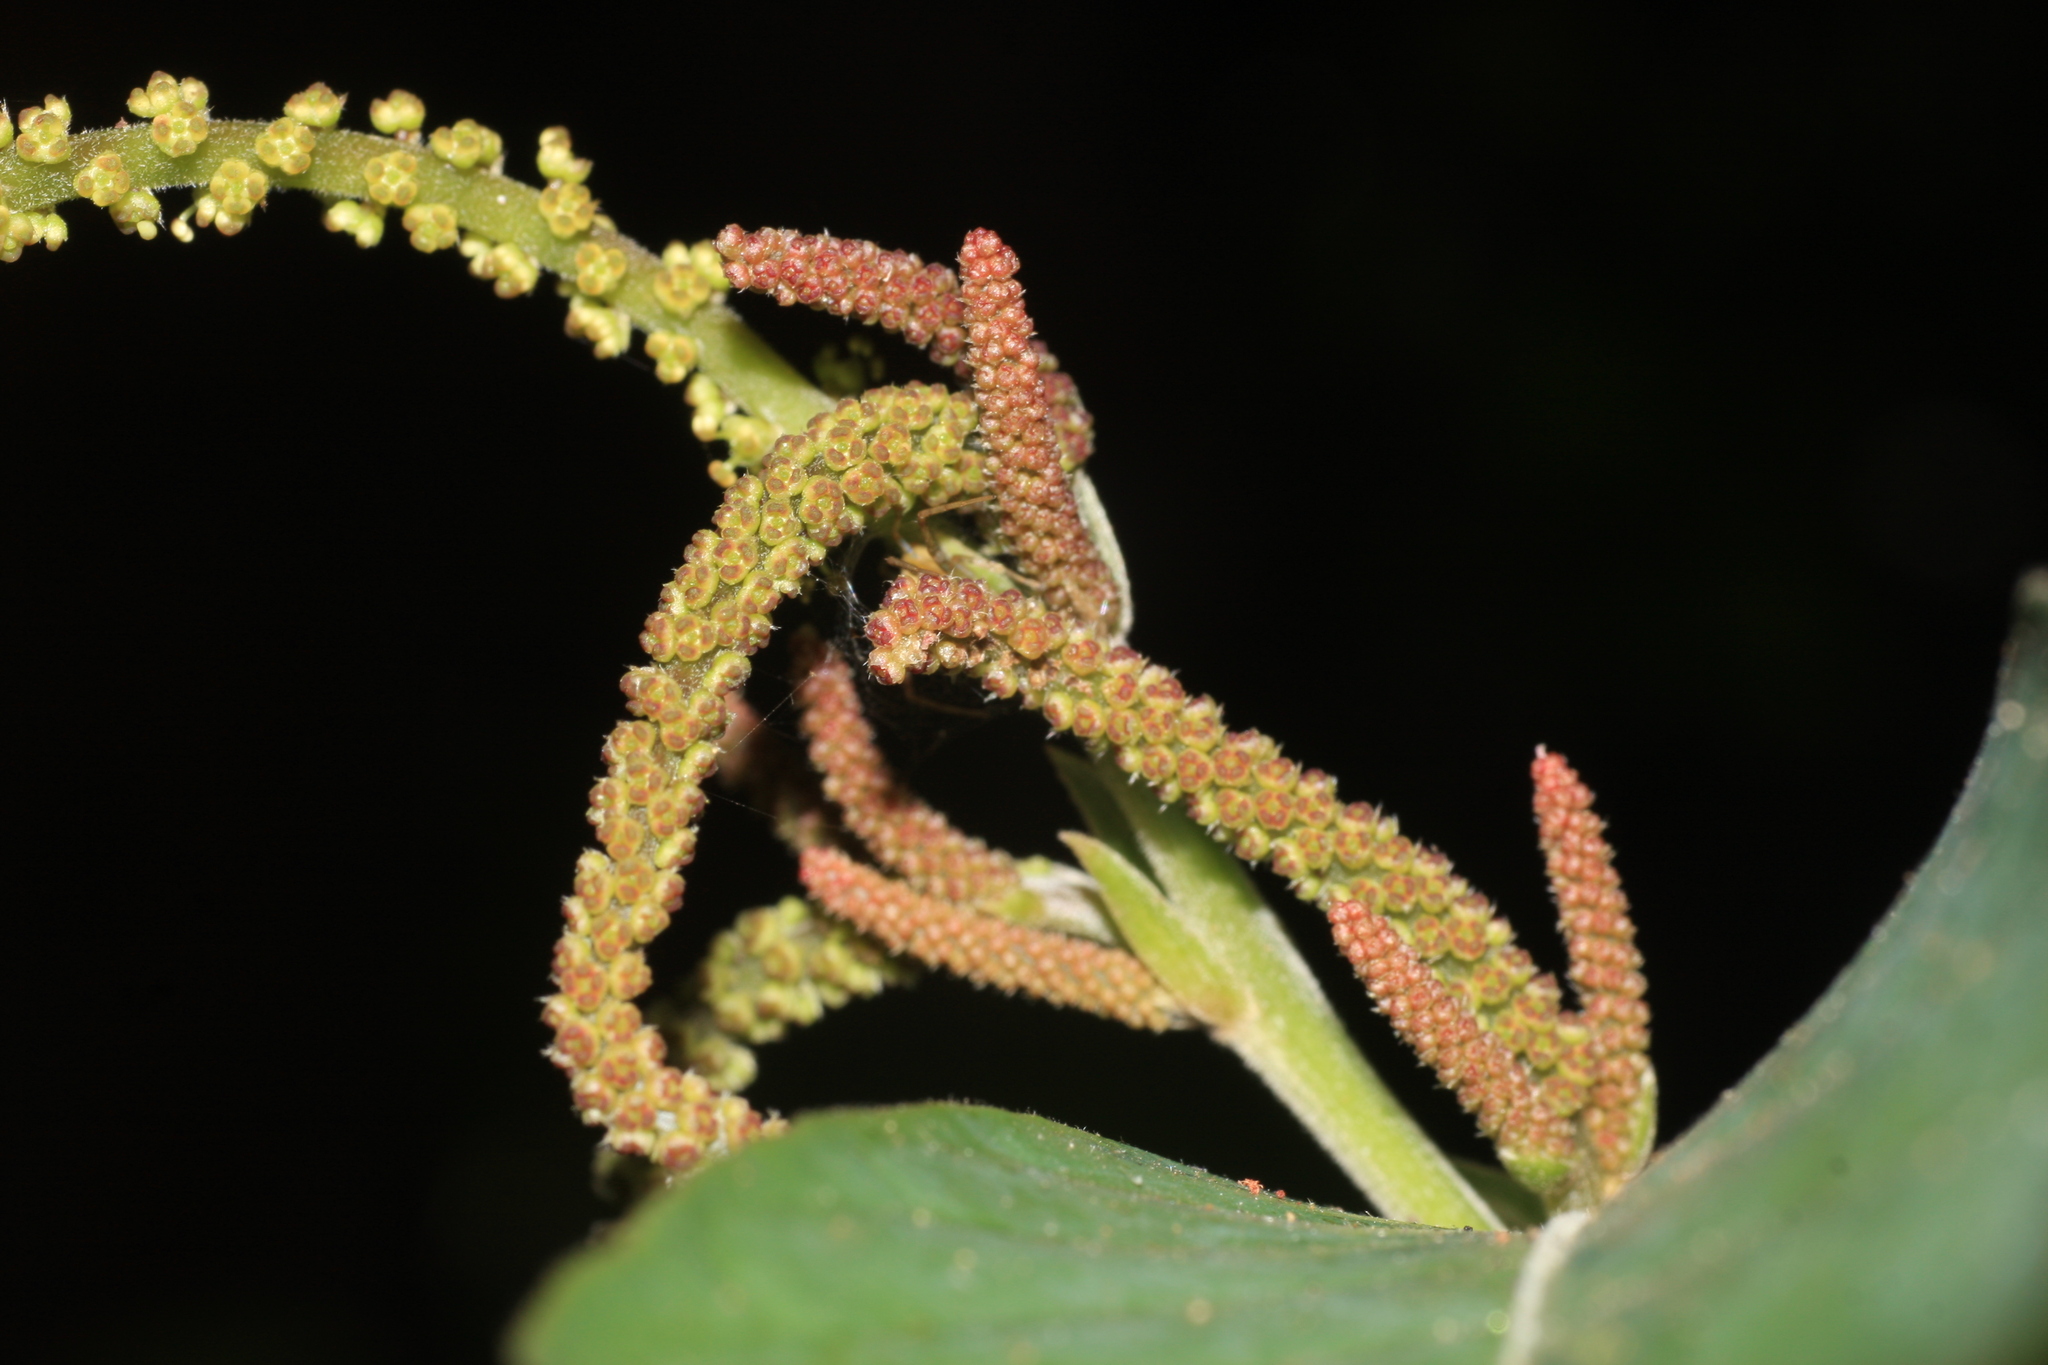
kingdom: Plantae
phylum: Tracheophyta
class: Magnoliopsida
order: Malpighiales
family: Phyllanthaceae
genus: Antidesma
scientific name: Antidesma montanum
